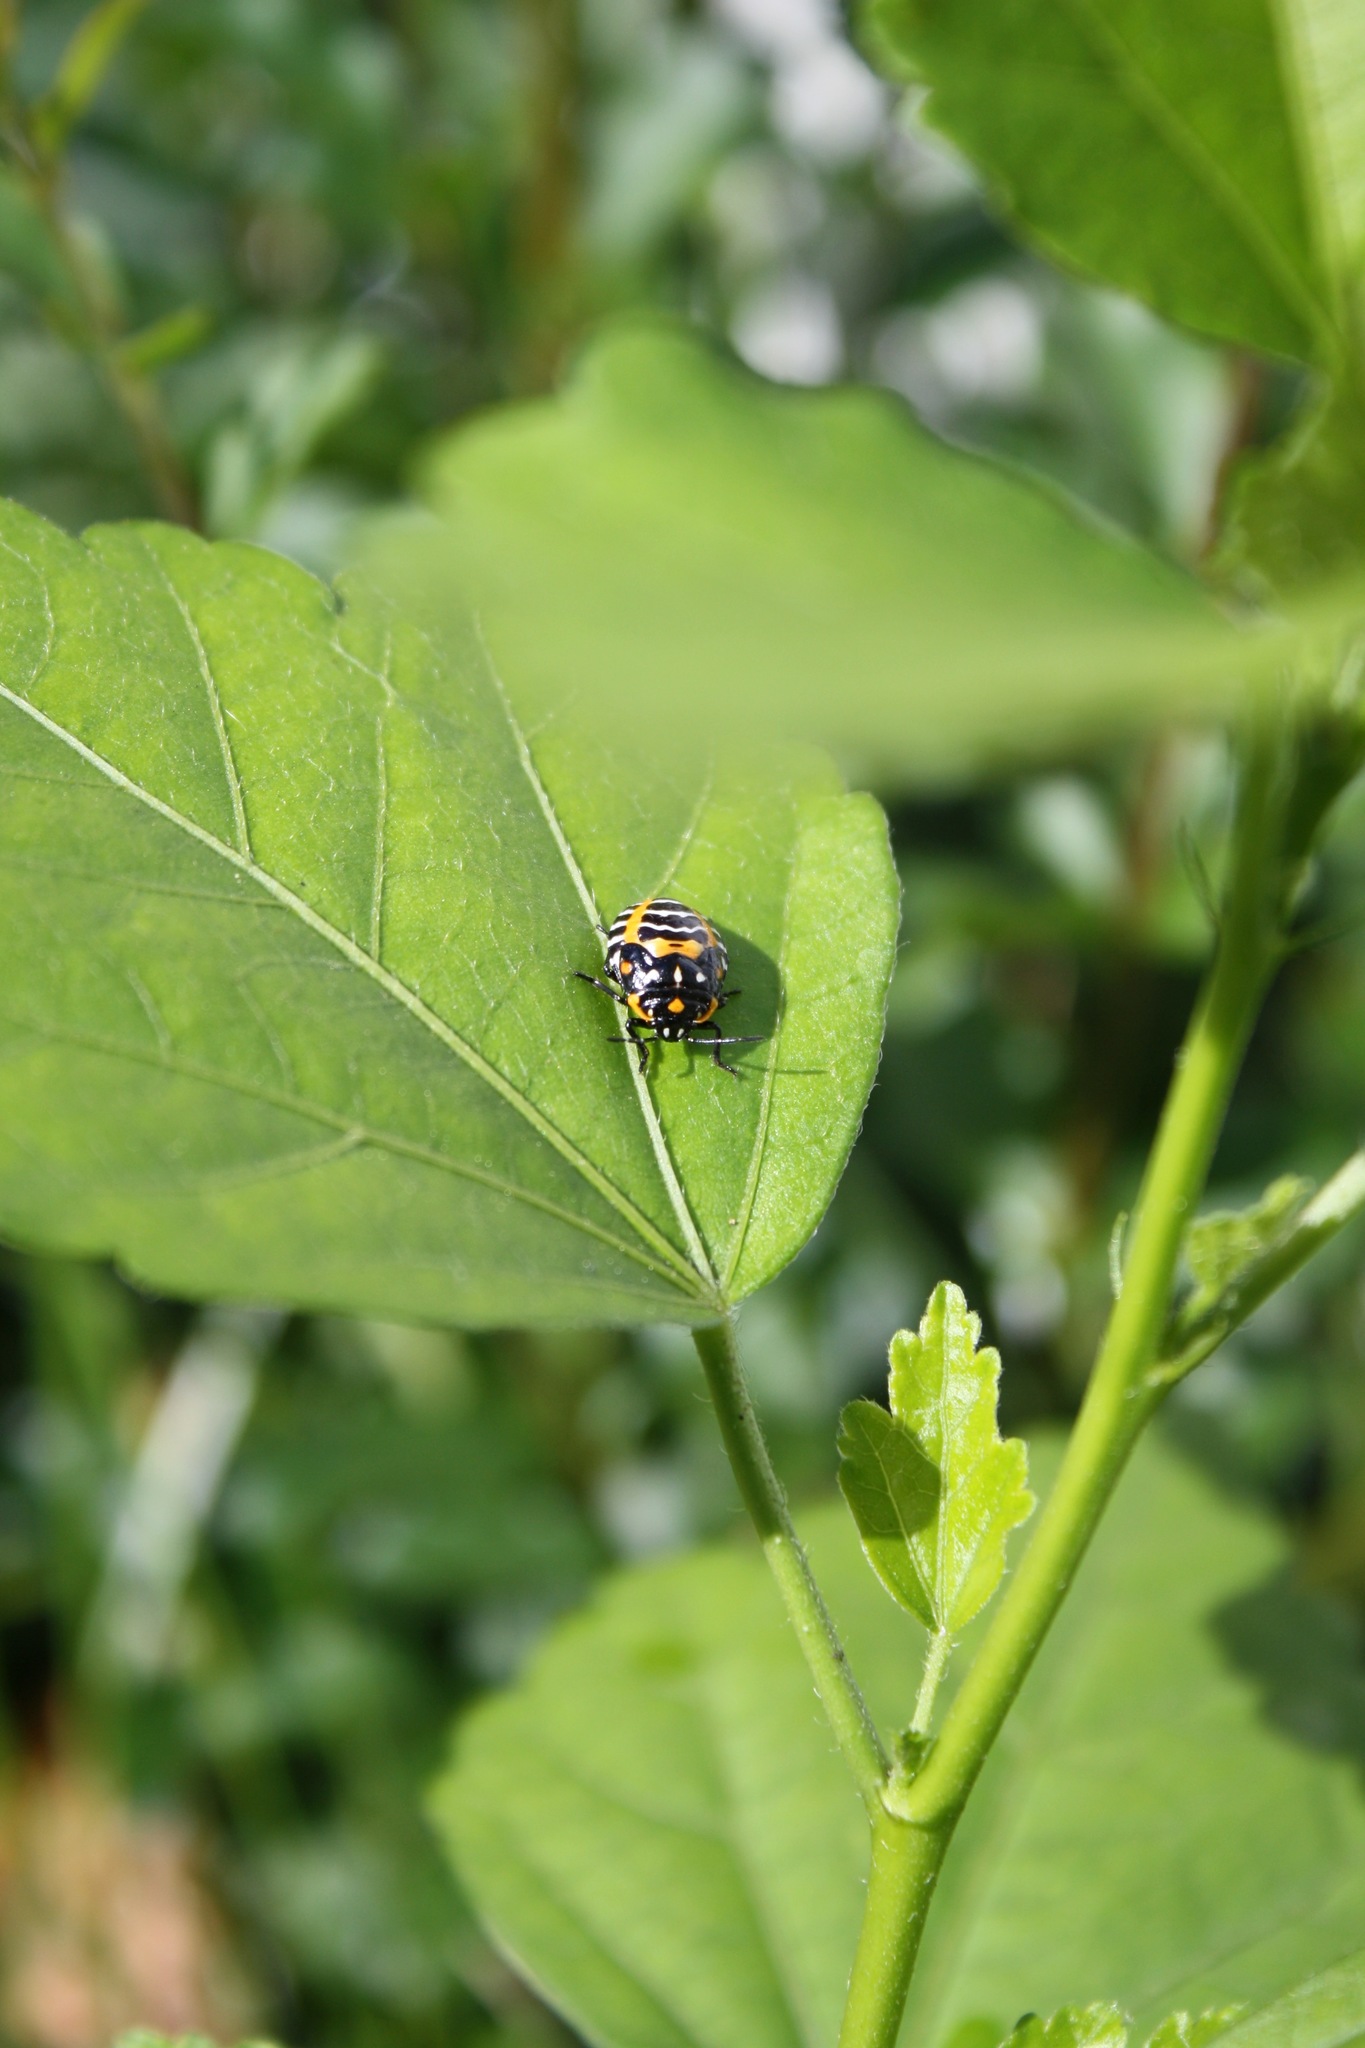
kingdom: Animalia
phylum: Arthropoda
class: Insecta
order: Hemiptera
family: Pentatomidae
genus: Murgantia
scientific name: Murgantia histrionica
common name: Harlequin bug
